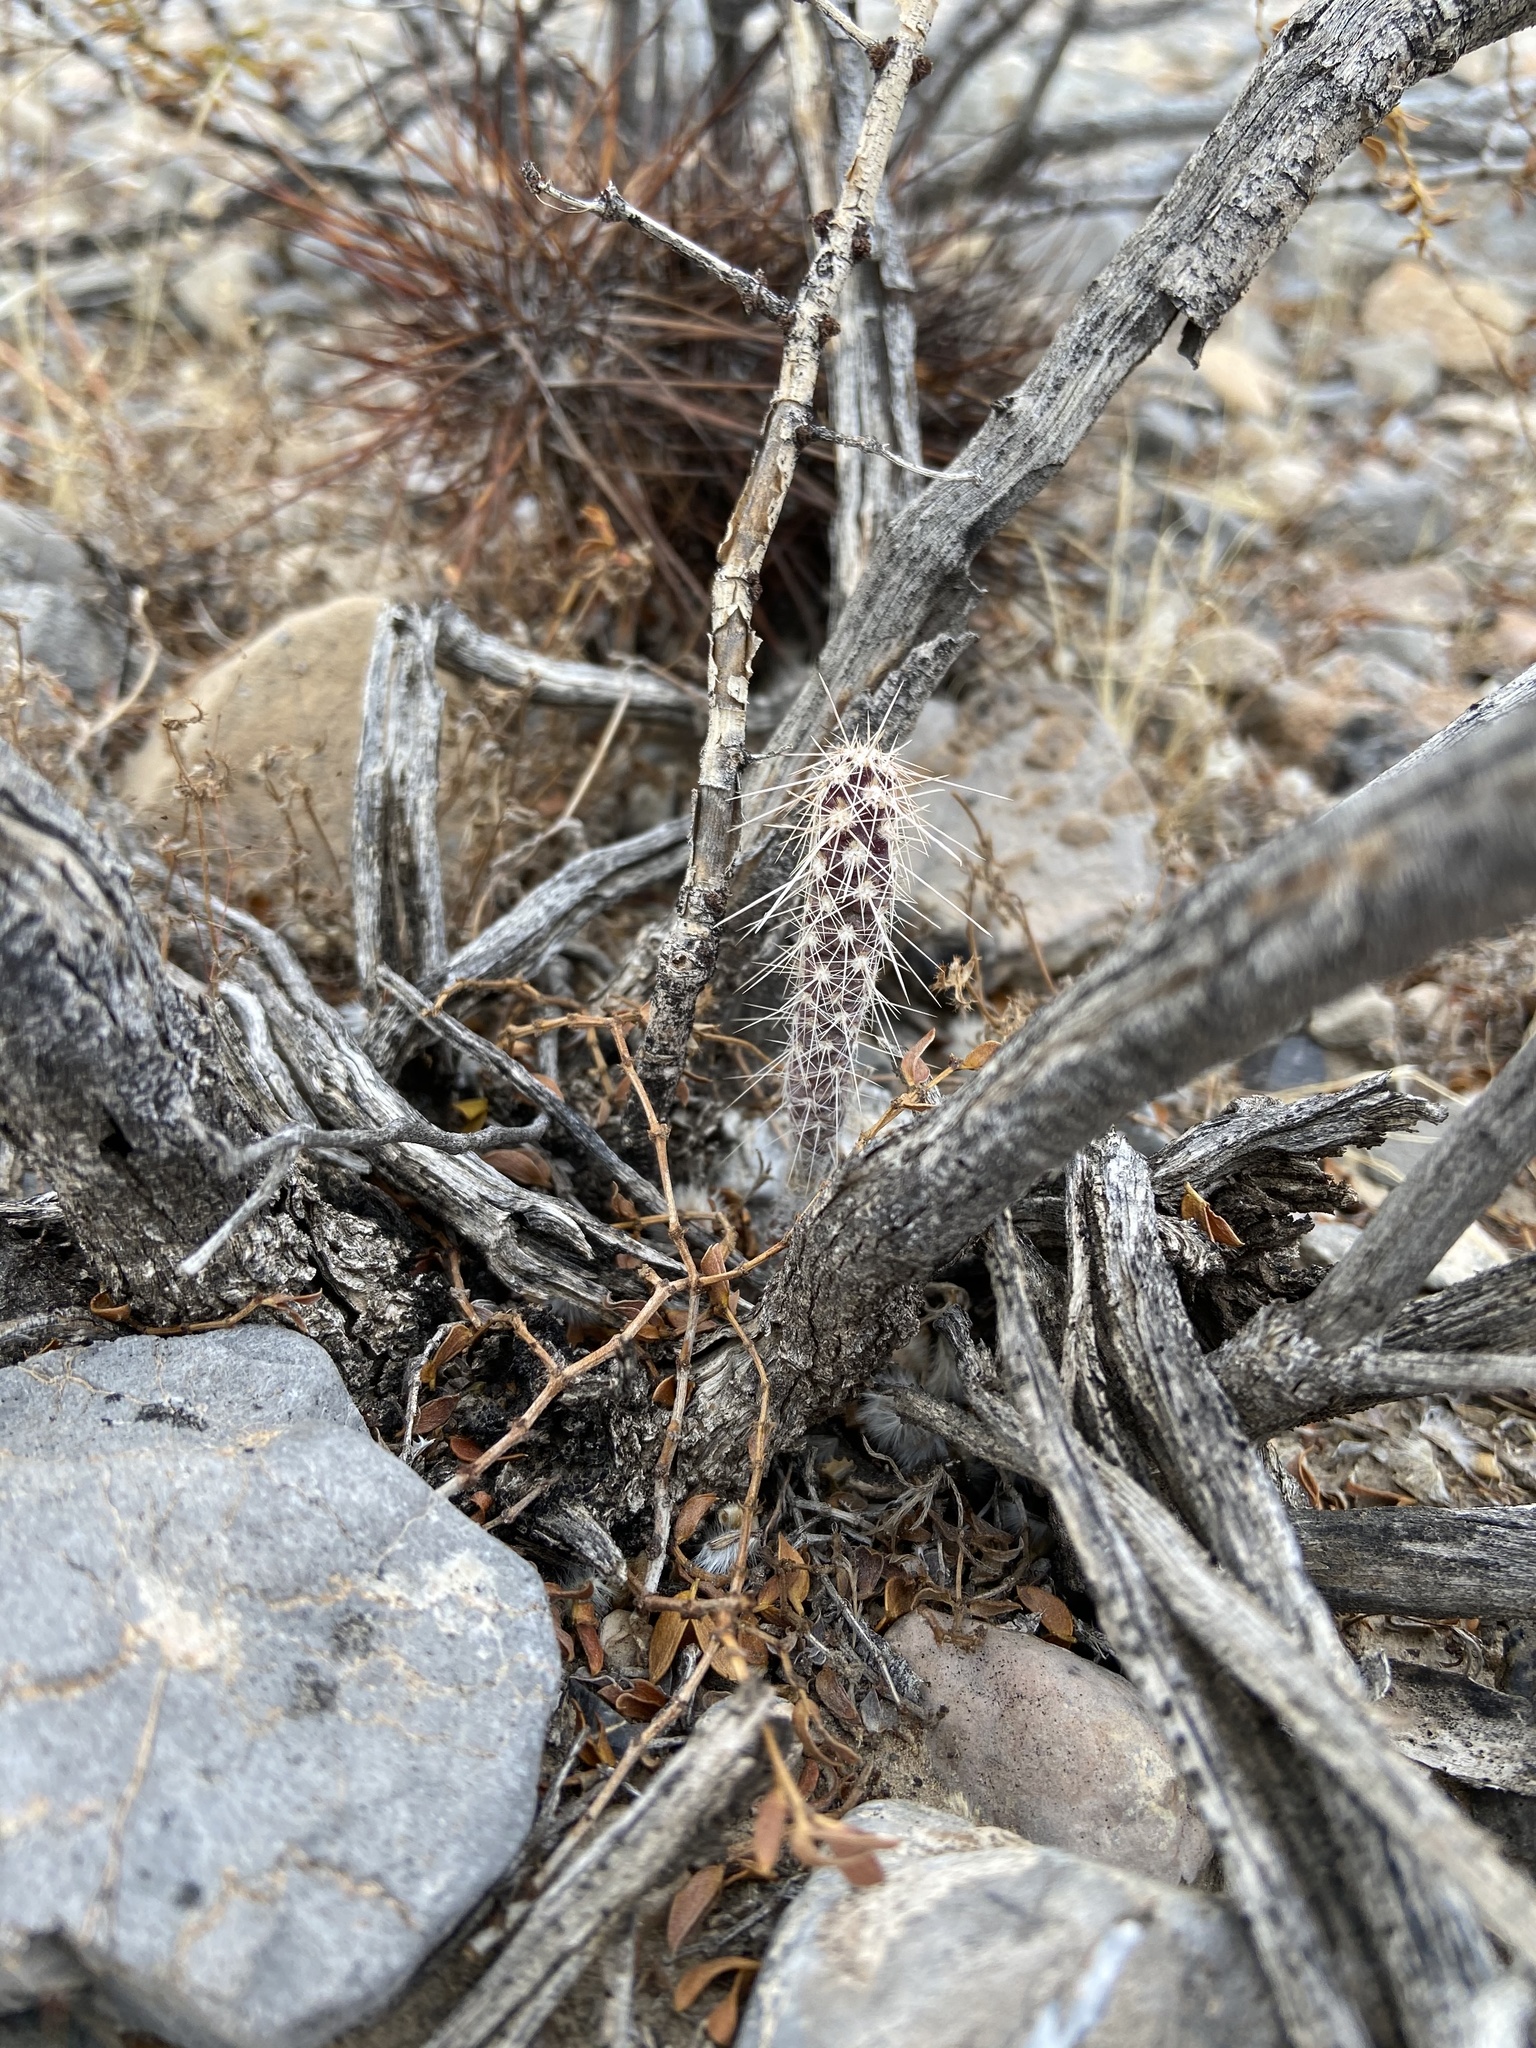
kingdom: Plantae
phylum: Tracheophyta
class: Magnoliopsida
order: Caryophyllales
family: Cactaceae
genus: Cylindropuntia
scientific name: Cylindropuntia ramosissima
